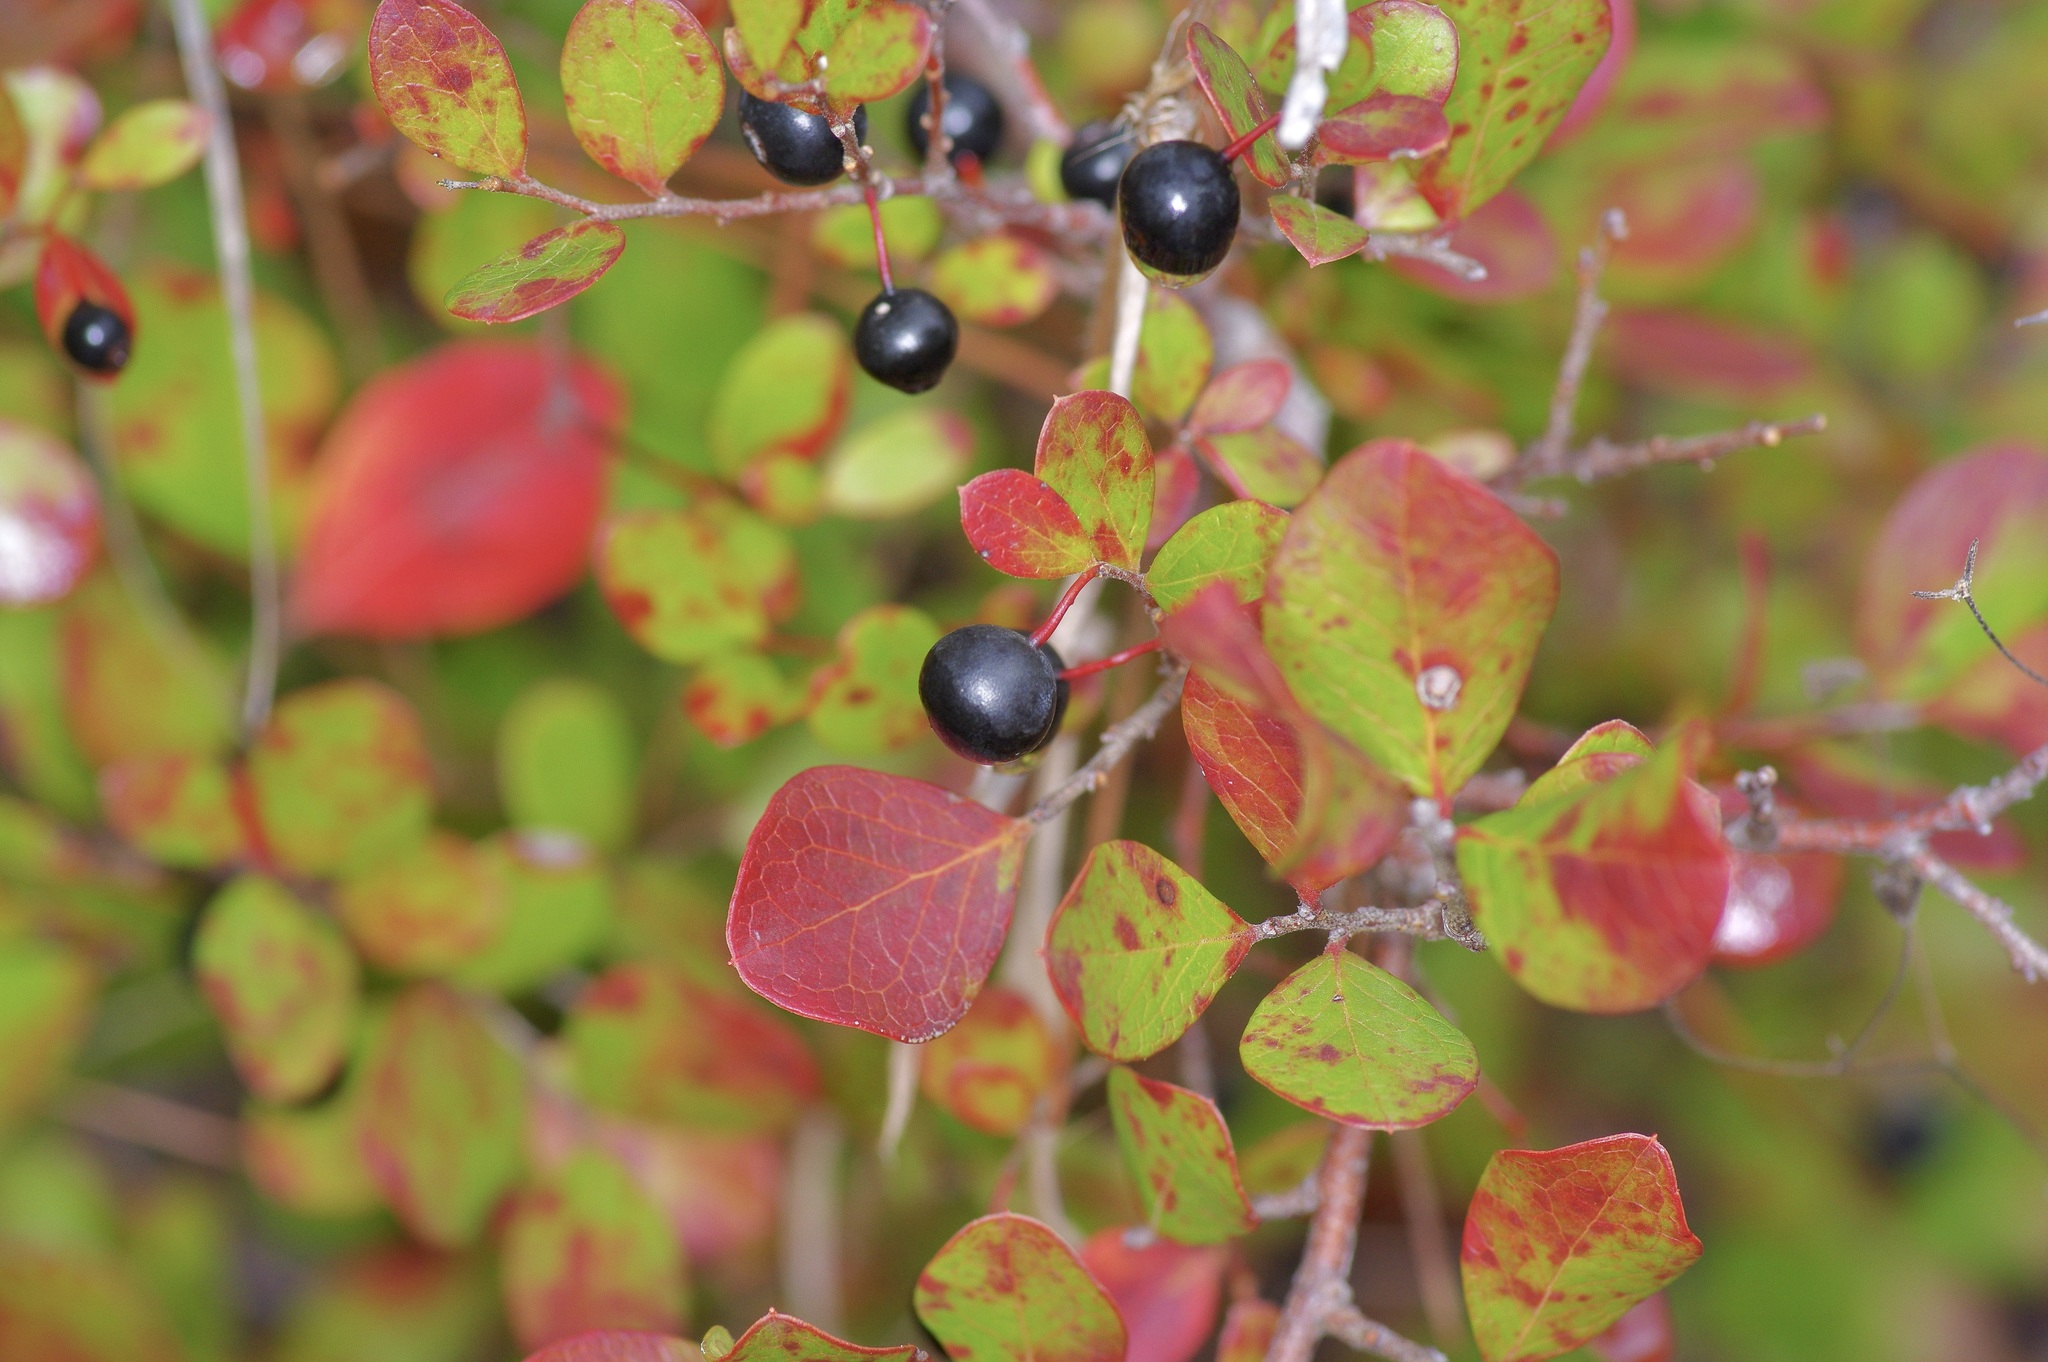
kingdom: Plantae
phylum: Tracheophyta
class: Magnoliopsida
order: Ericales
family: Ericaceae
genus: Vaccinium
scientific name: Vaccinium arboreum
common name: Farkleberry
